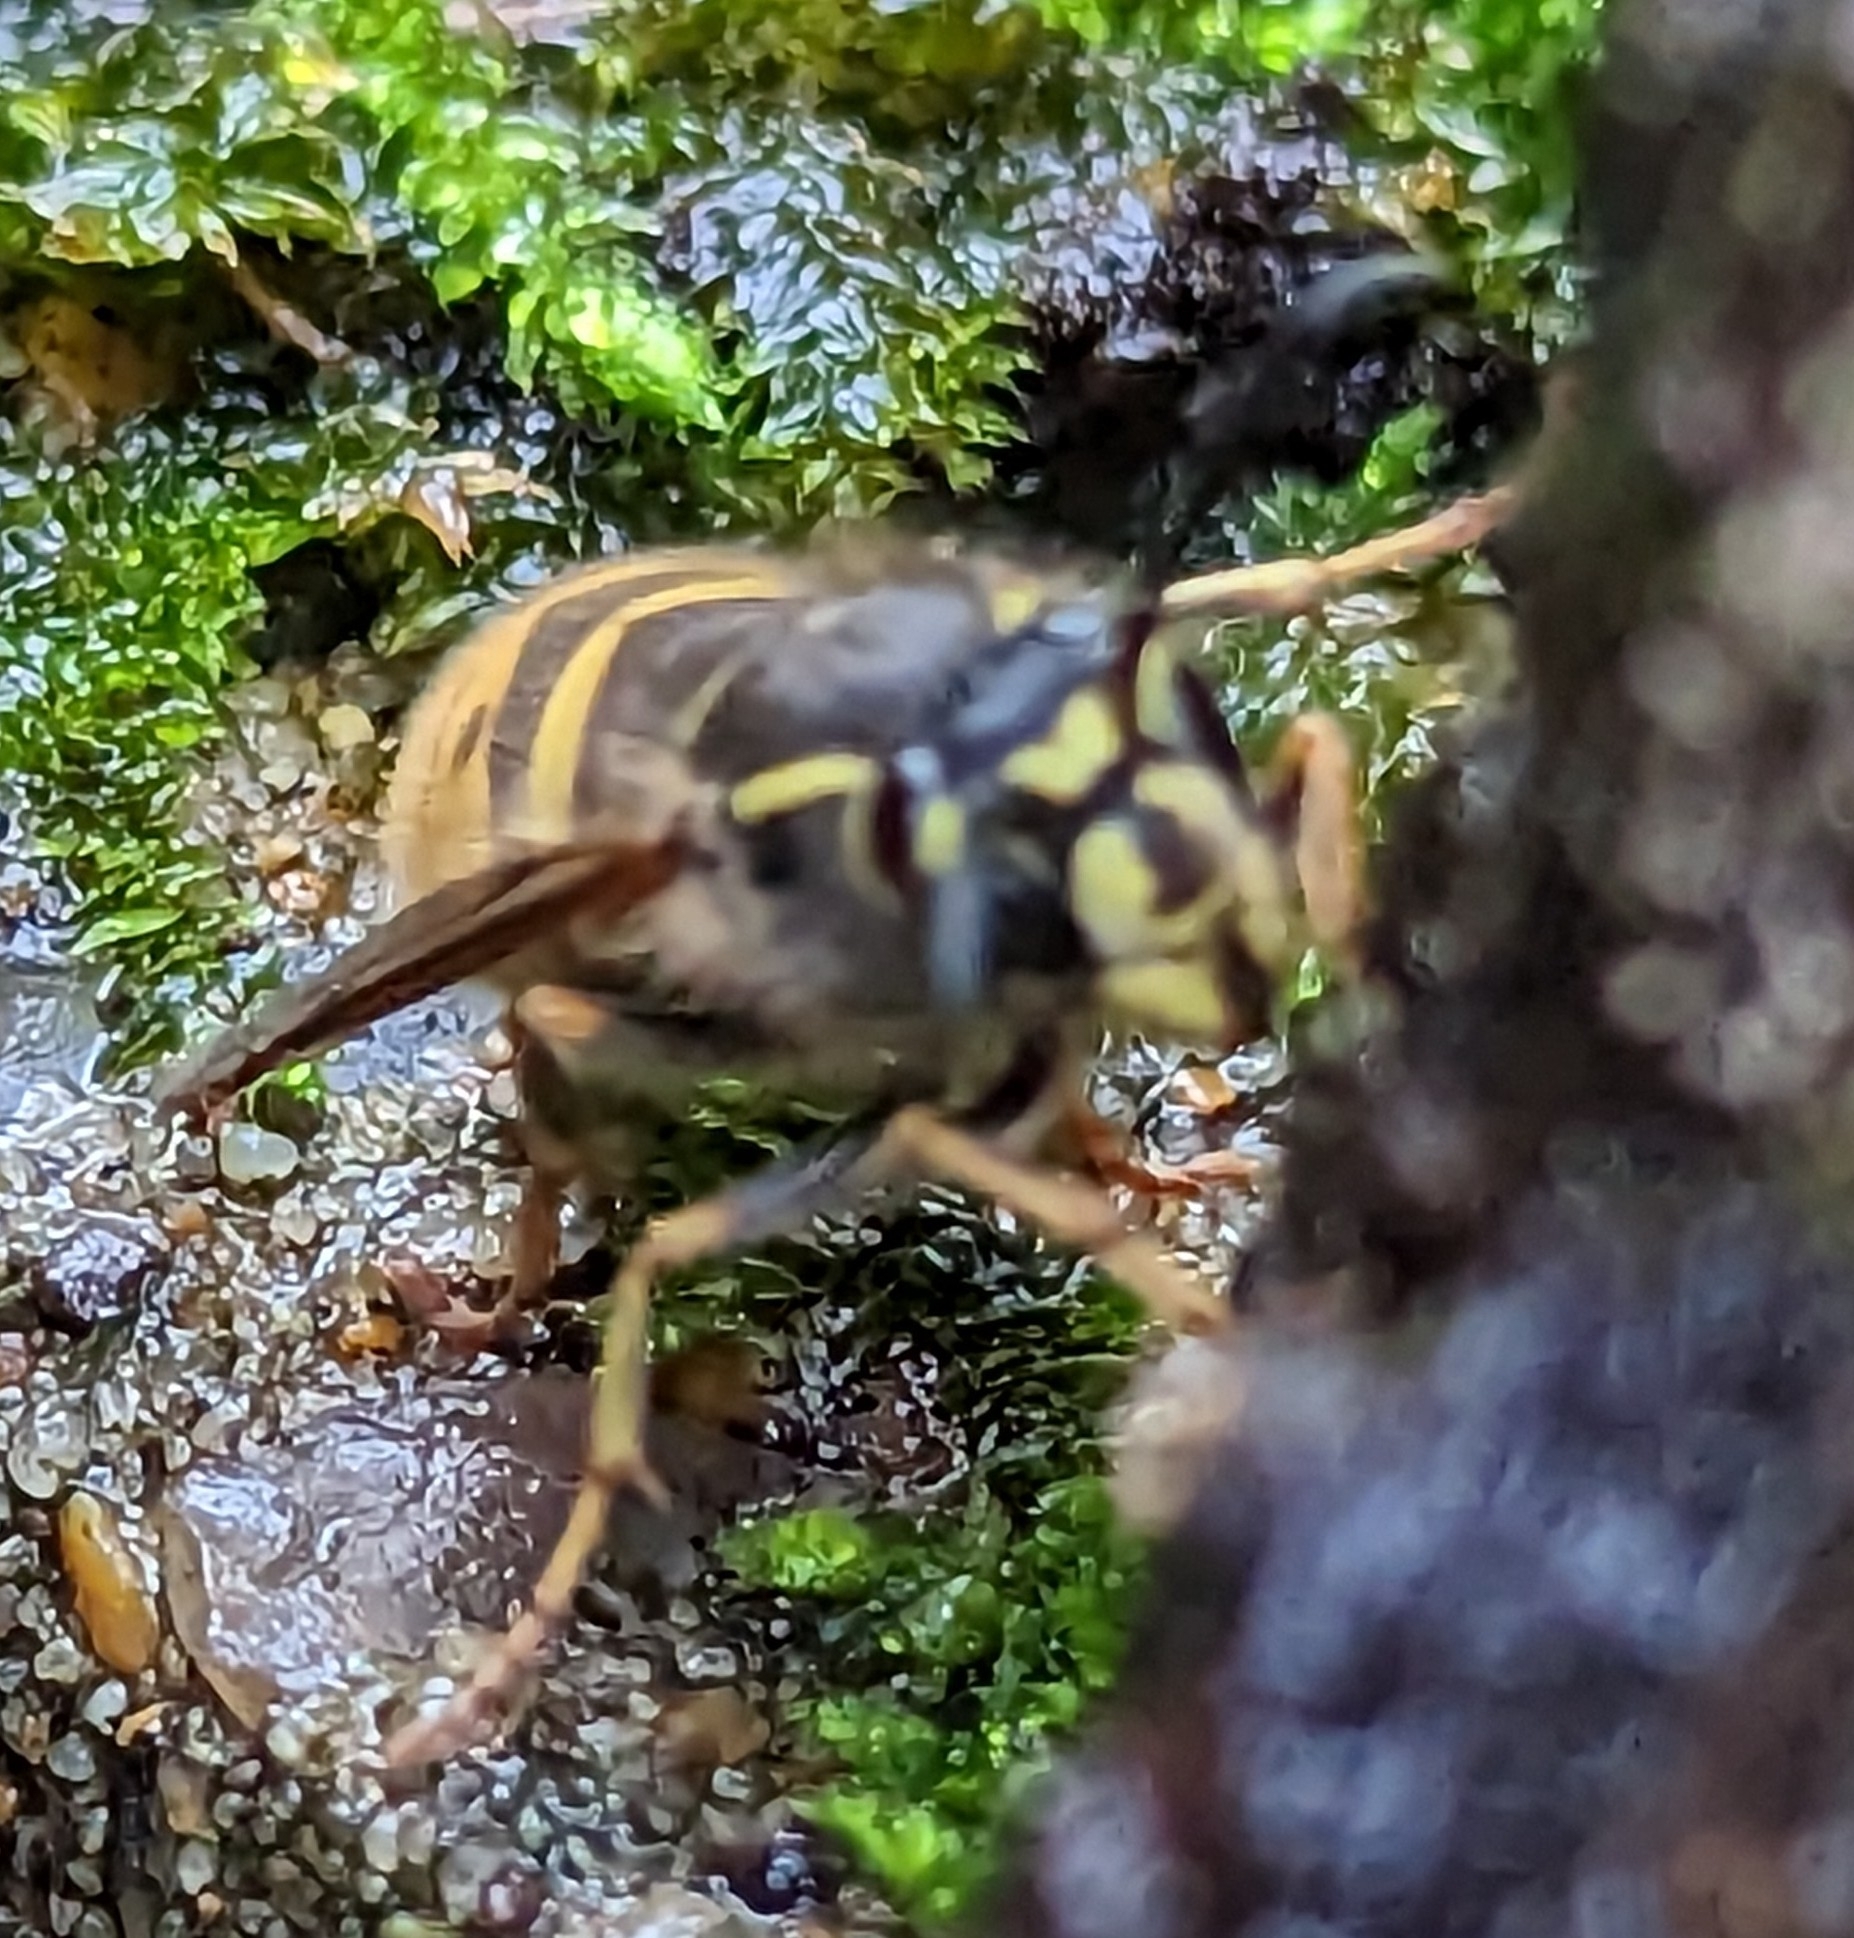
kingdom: Animalia
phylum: Arthropoda
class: Insecta
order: Hymenoptera
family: Vespidae
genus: Vespula
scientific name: Vespula vulgaris
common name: Common wasp
